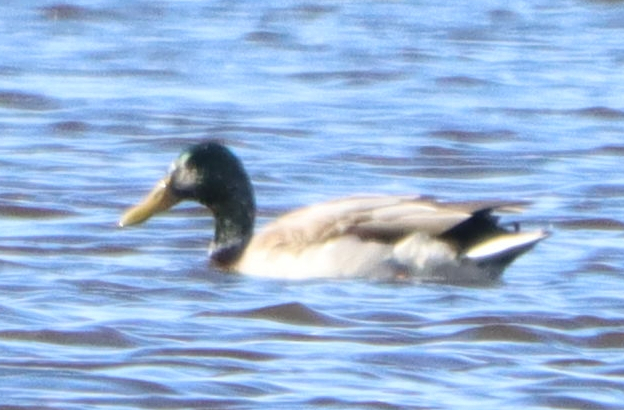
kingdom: Animalia
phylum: Chordata
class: Aves
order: Anseriformes
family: Anatidae
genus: Anas
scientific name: Anas platyrhynchos
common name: Mallard
